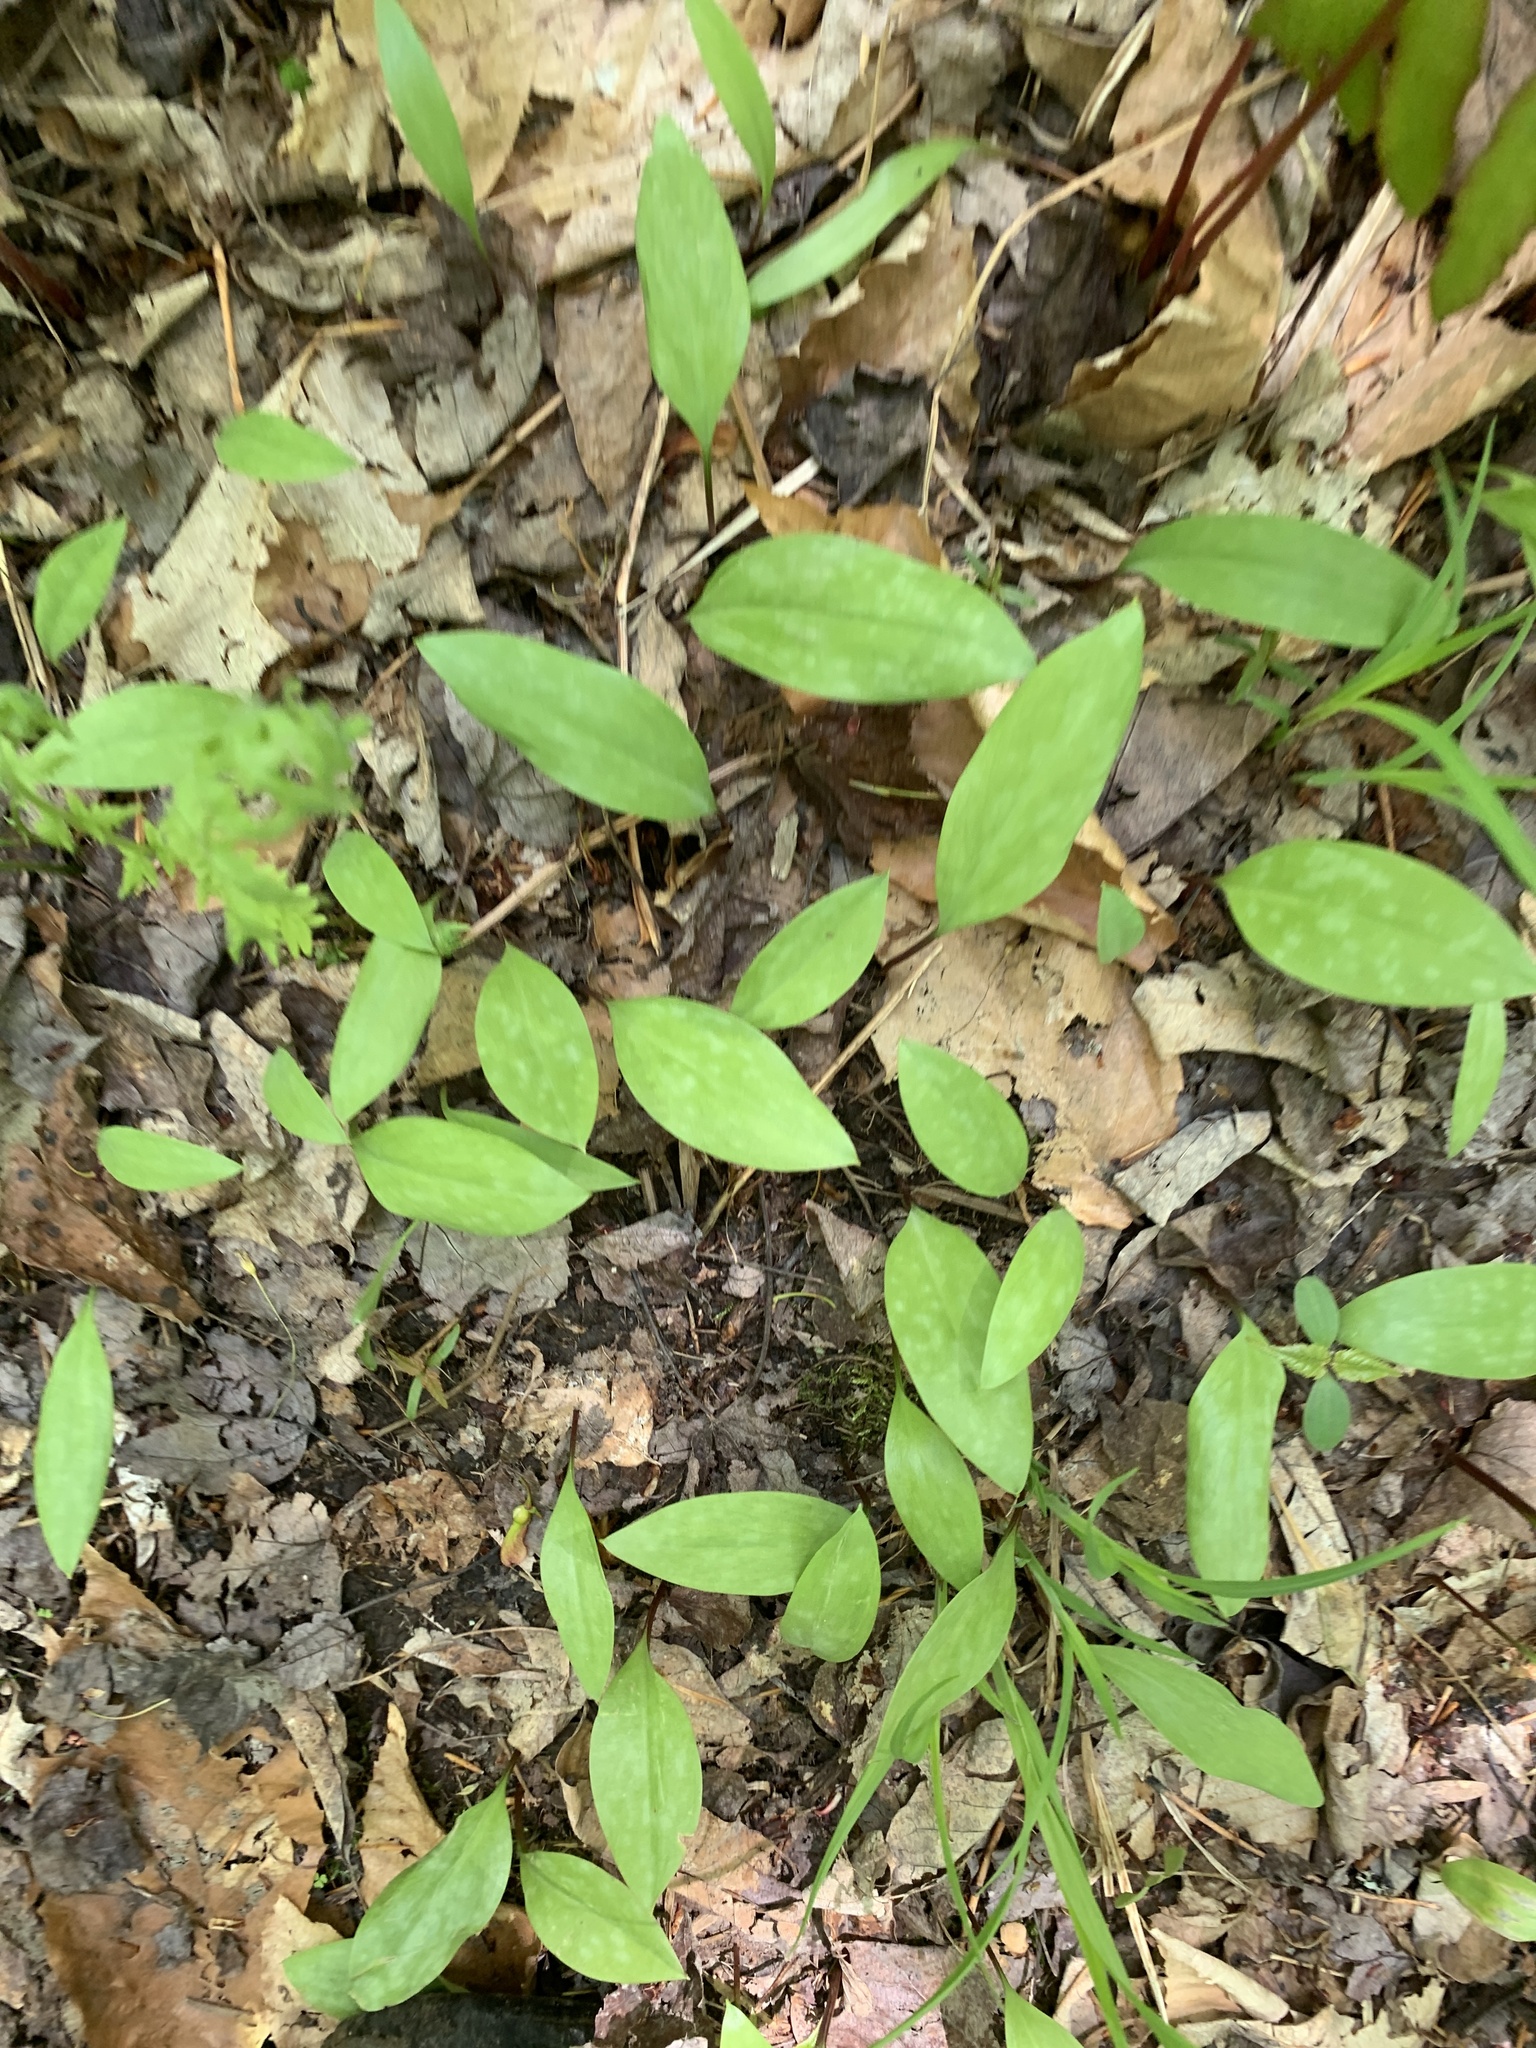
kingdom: Plantae
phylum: Tracheophyta
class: Liliopsida
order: Liliales
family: Liliaceae
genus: Erythronium
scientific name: Erythronium americanum
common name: Yellow adder's-tongue
